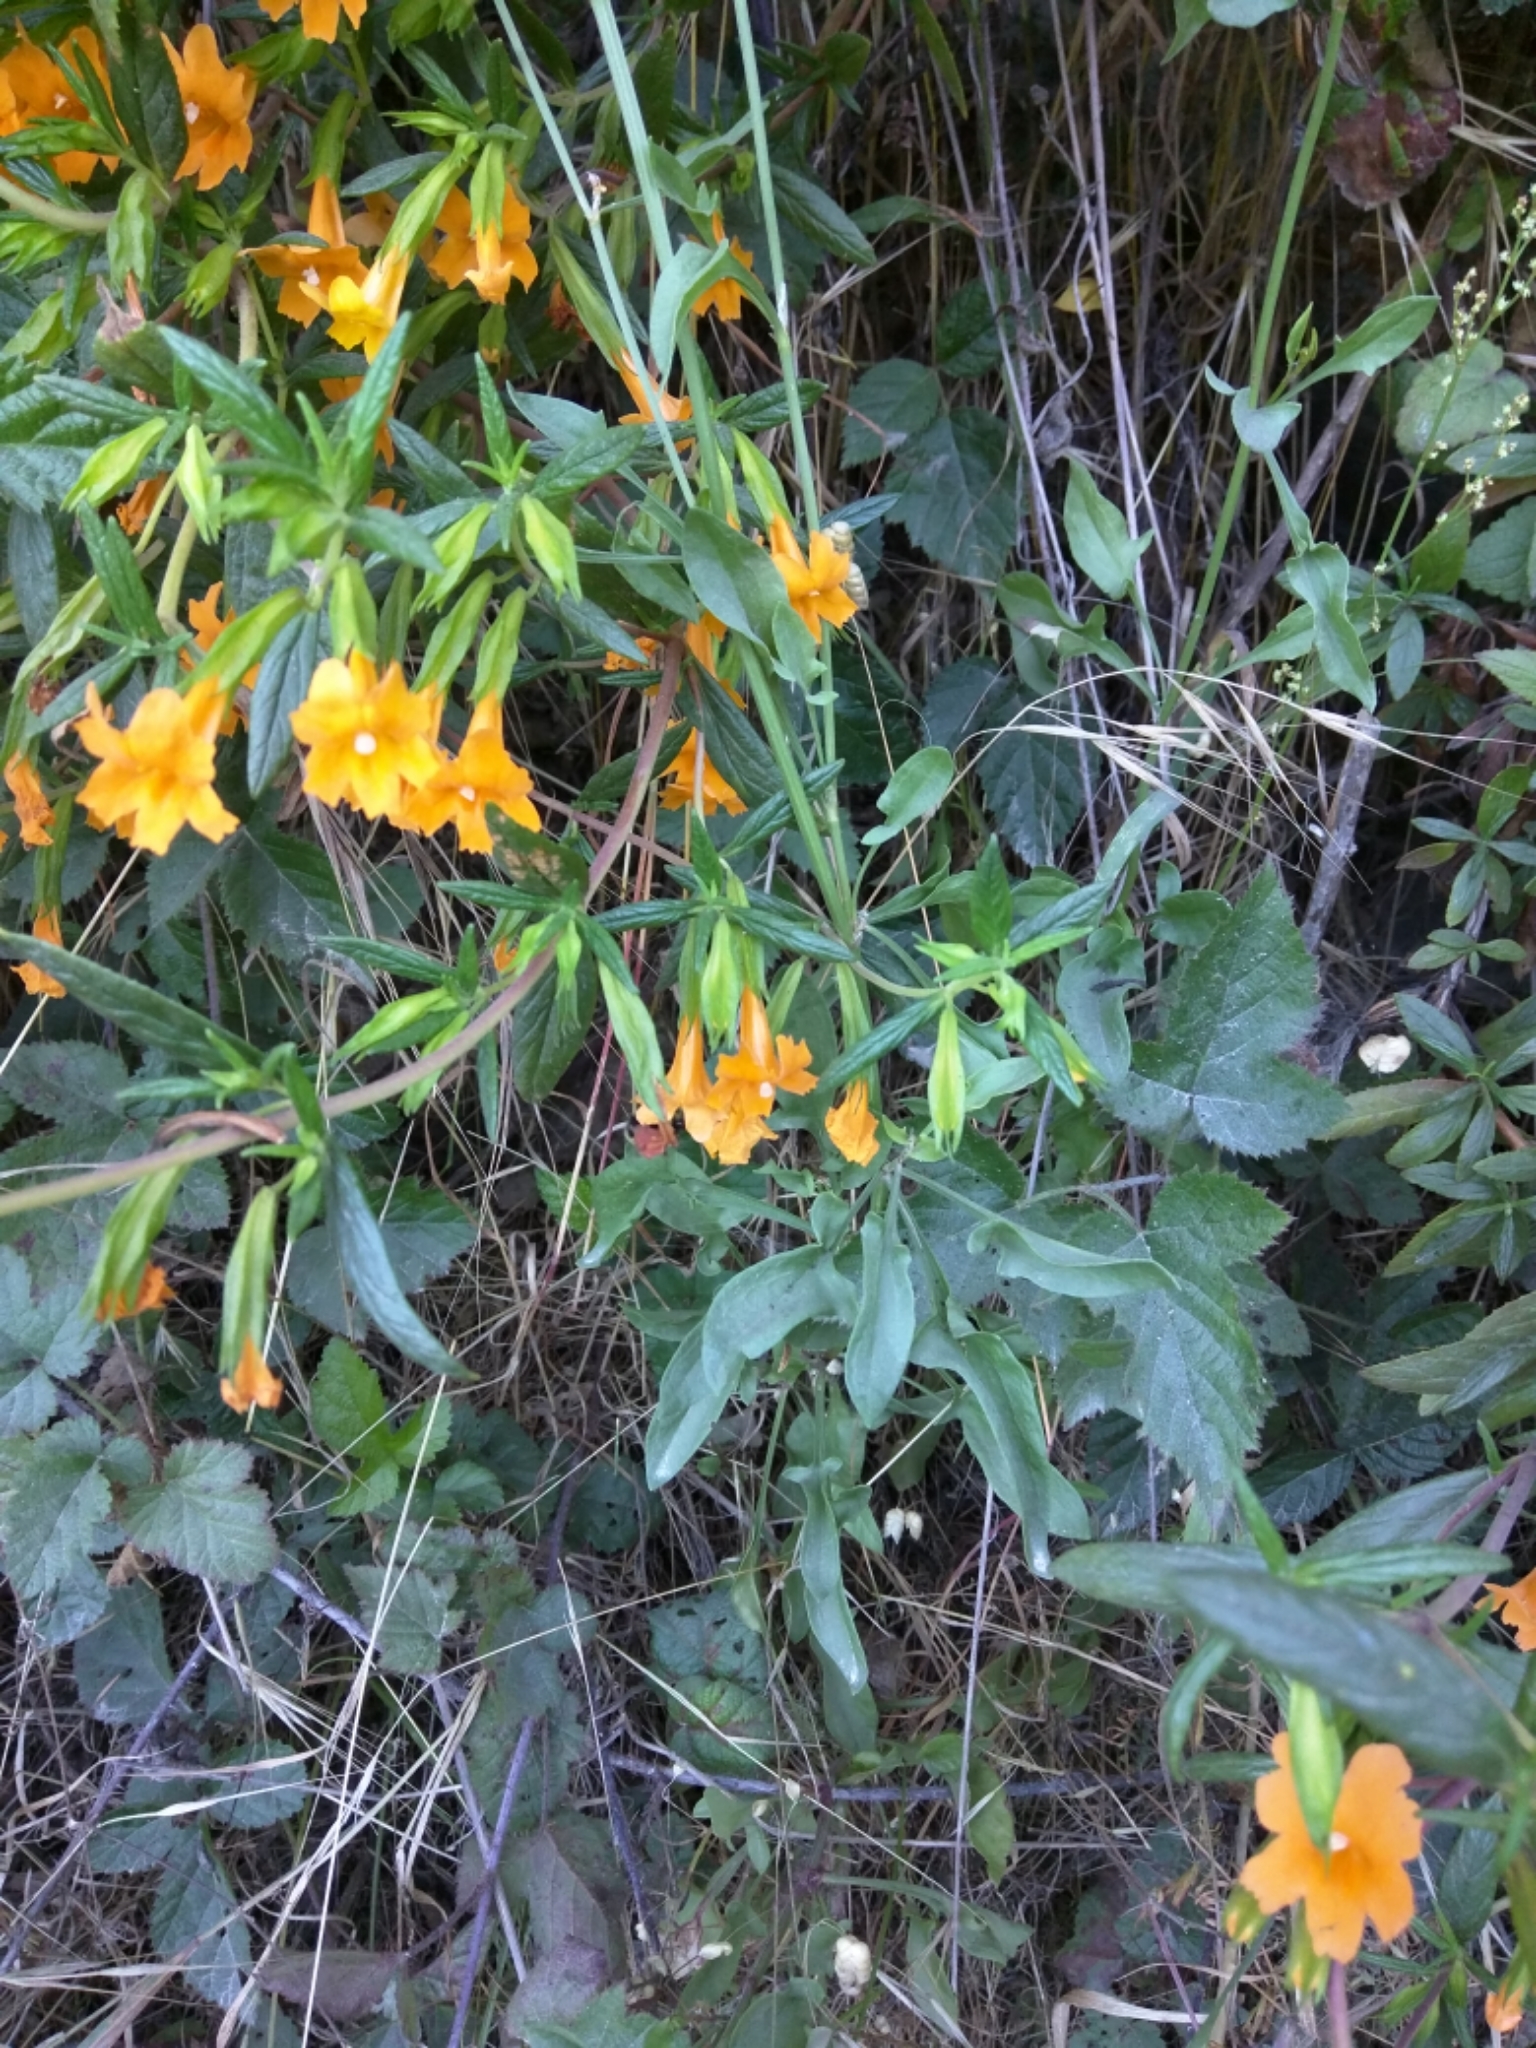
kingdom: Plantae
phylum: Tracheophyta
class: Magnoliopsida
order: Lamiales
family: Phrymaceae
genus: Diplacus
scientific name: Diplacus aurantiacus
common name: Bush monkey-flower
